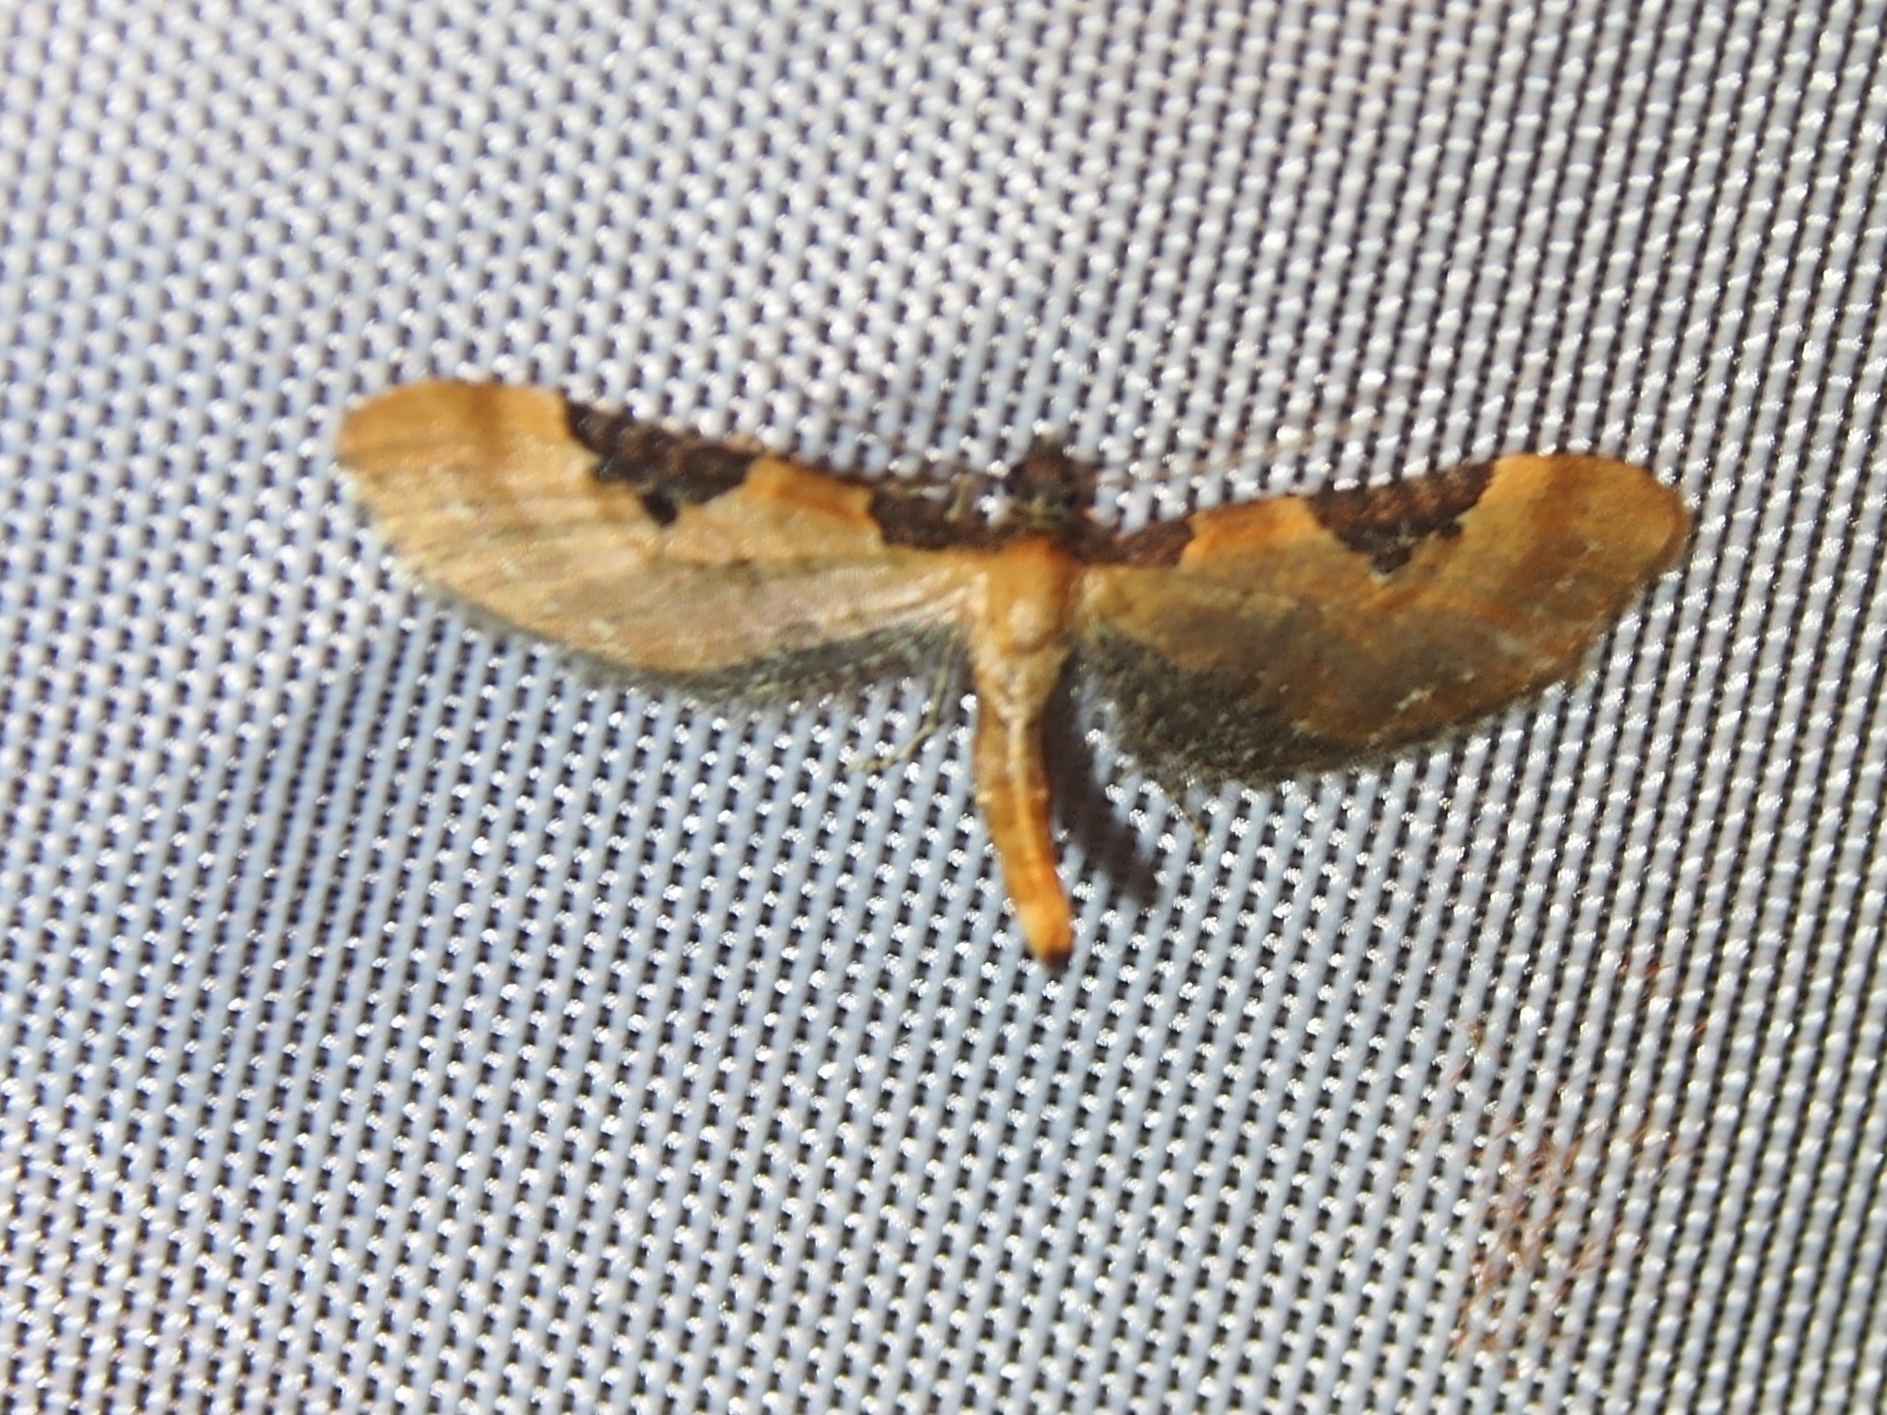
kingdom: Animalia
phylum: Arthropoda
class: Insecta
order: Lepidoptera
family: Geometridae
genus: Eupithecia
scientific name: Eupithecia
